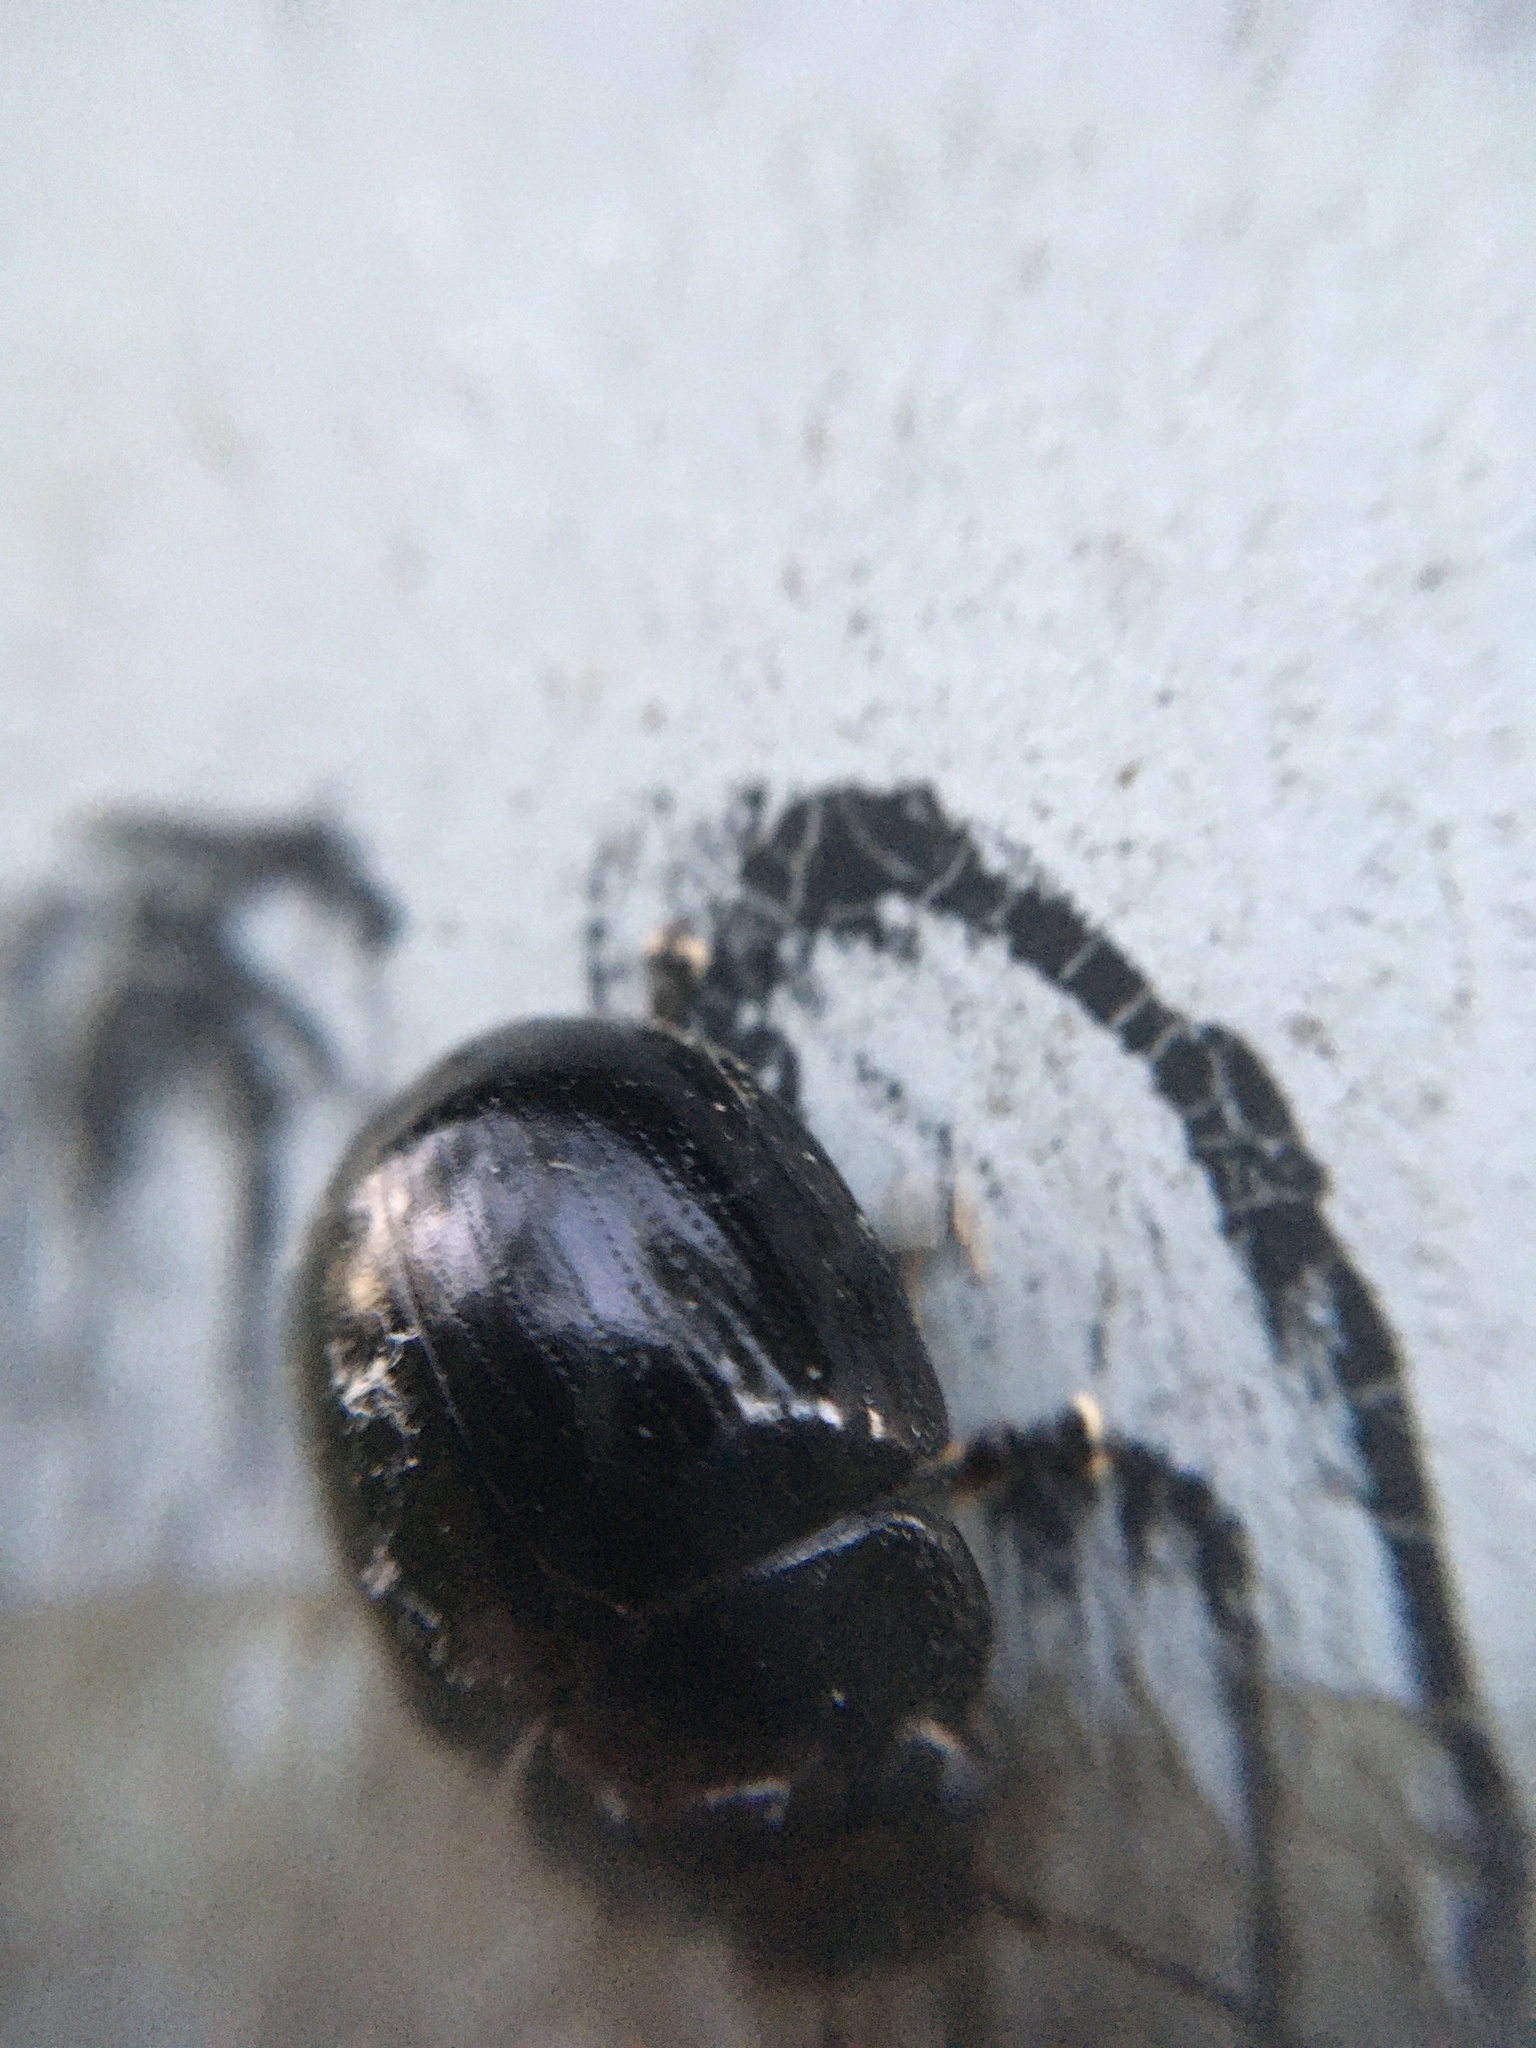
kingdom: Animalia
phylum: Arthropoda
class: Insecta
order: Coleoptera
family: Chrysomelidae
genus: Paropsisterna
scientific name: Paropsisterna
